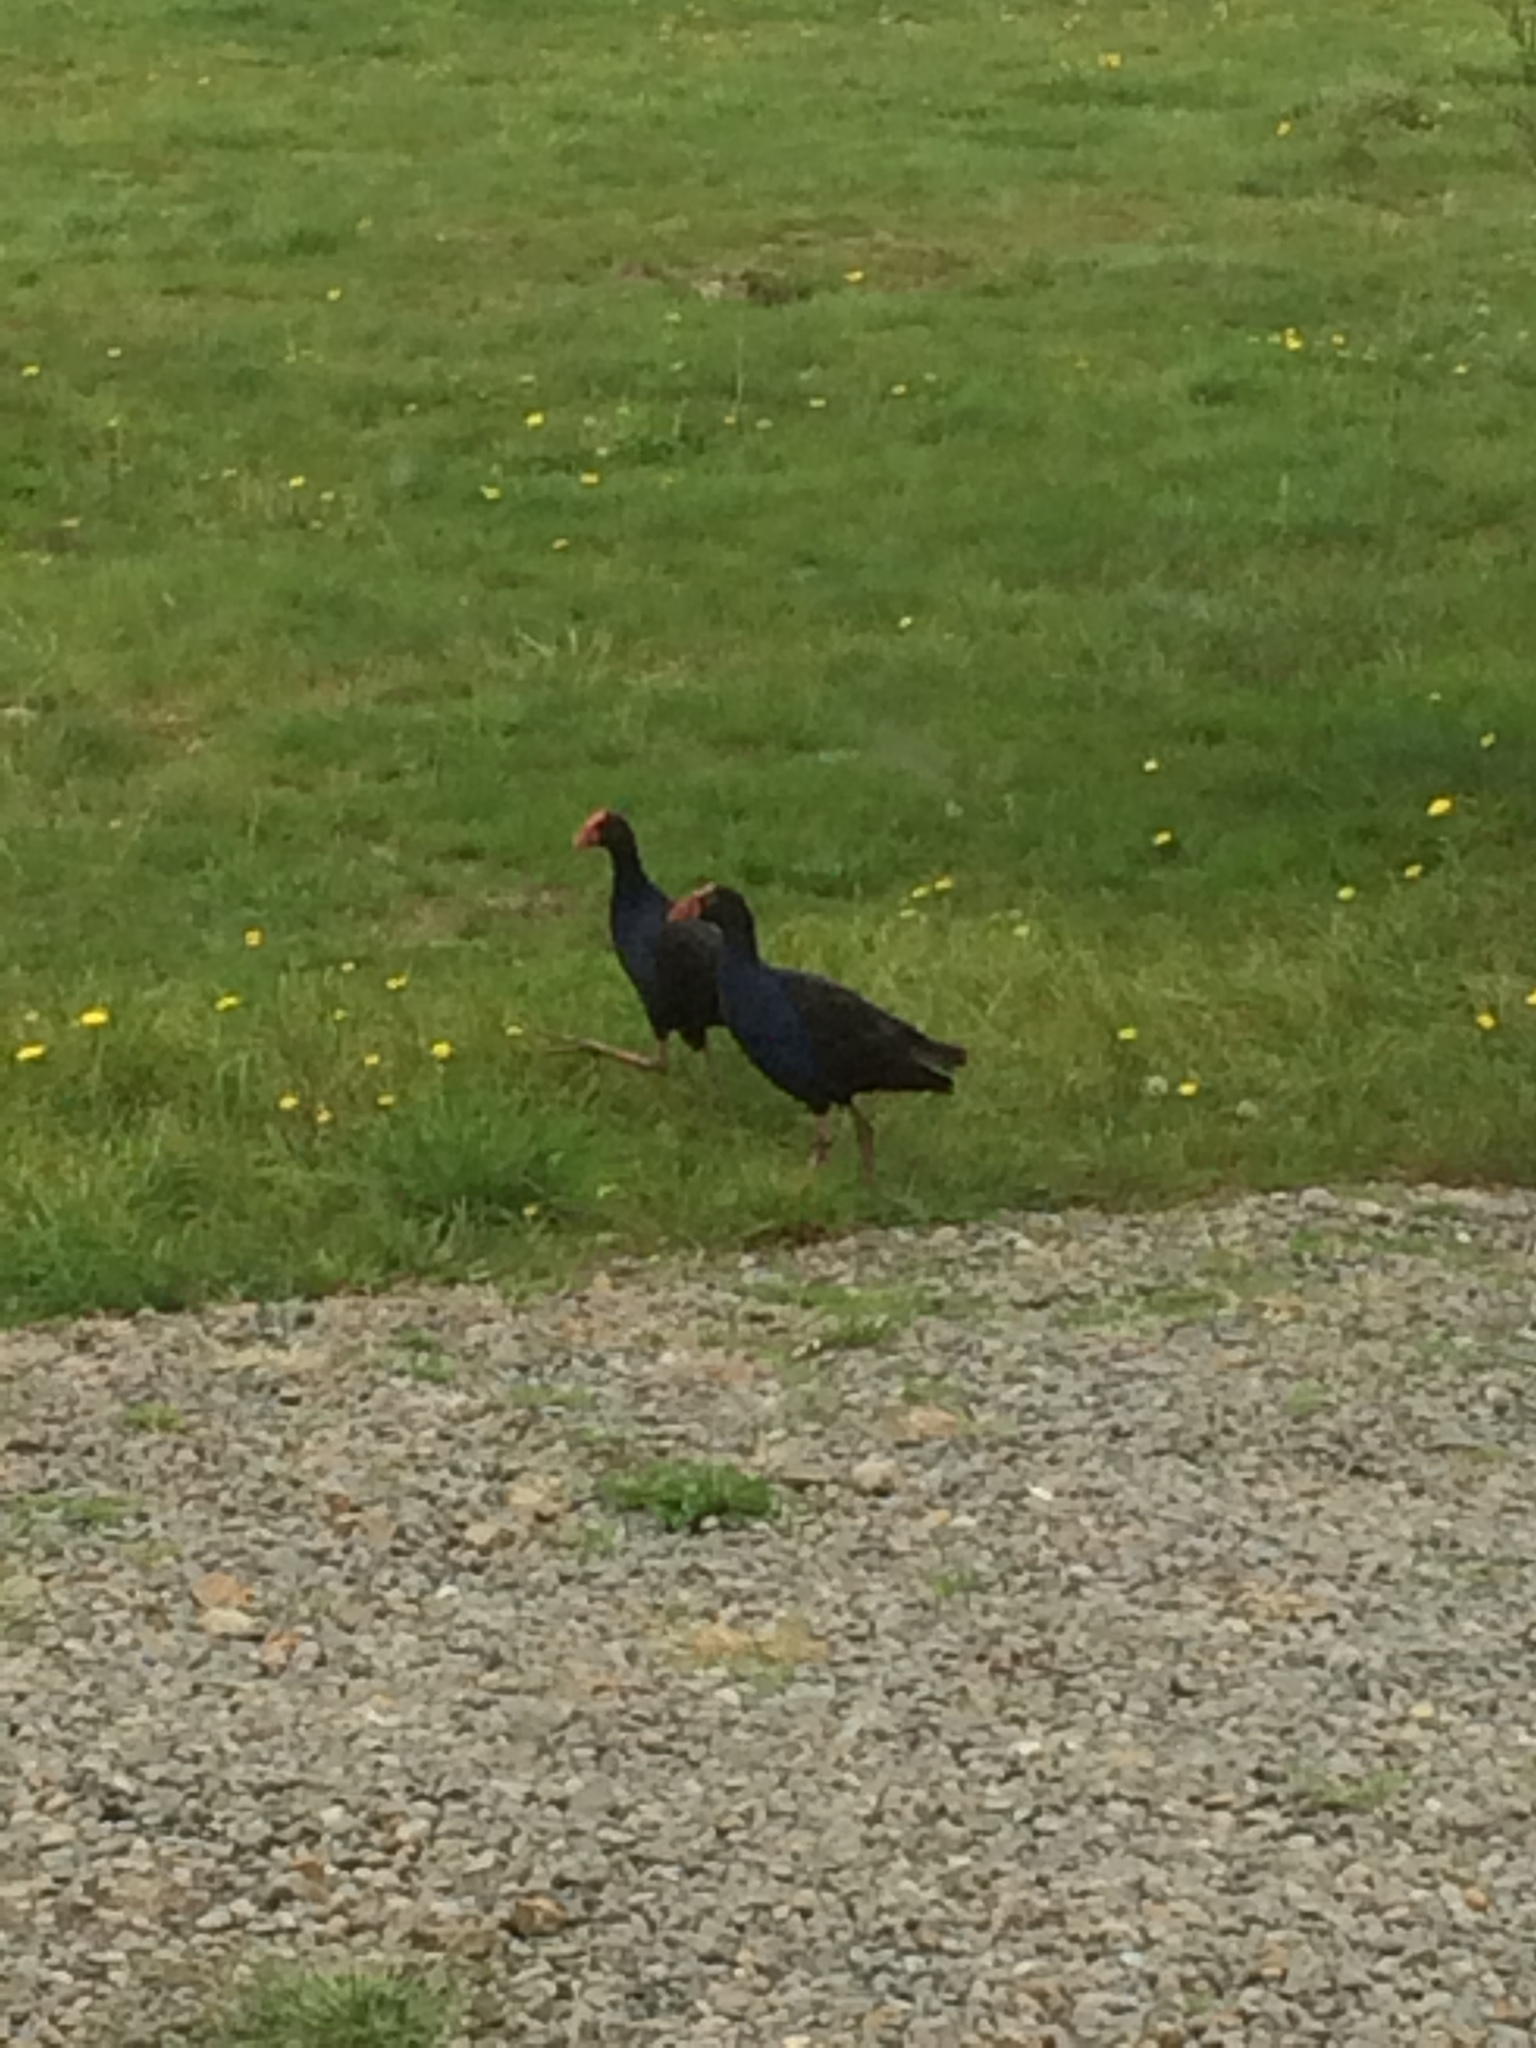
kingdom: Animalia
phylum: Chordata
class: Aves
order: Gruiformes
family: Rallidae
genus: Porphyrio
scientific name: Porphyrio melanotus
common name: Australasian swamphen
